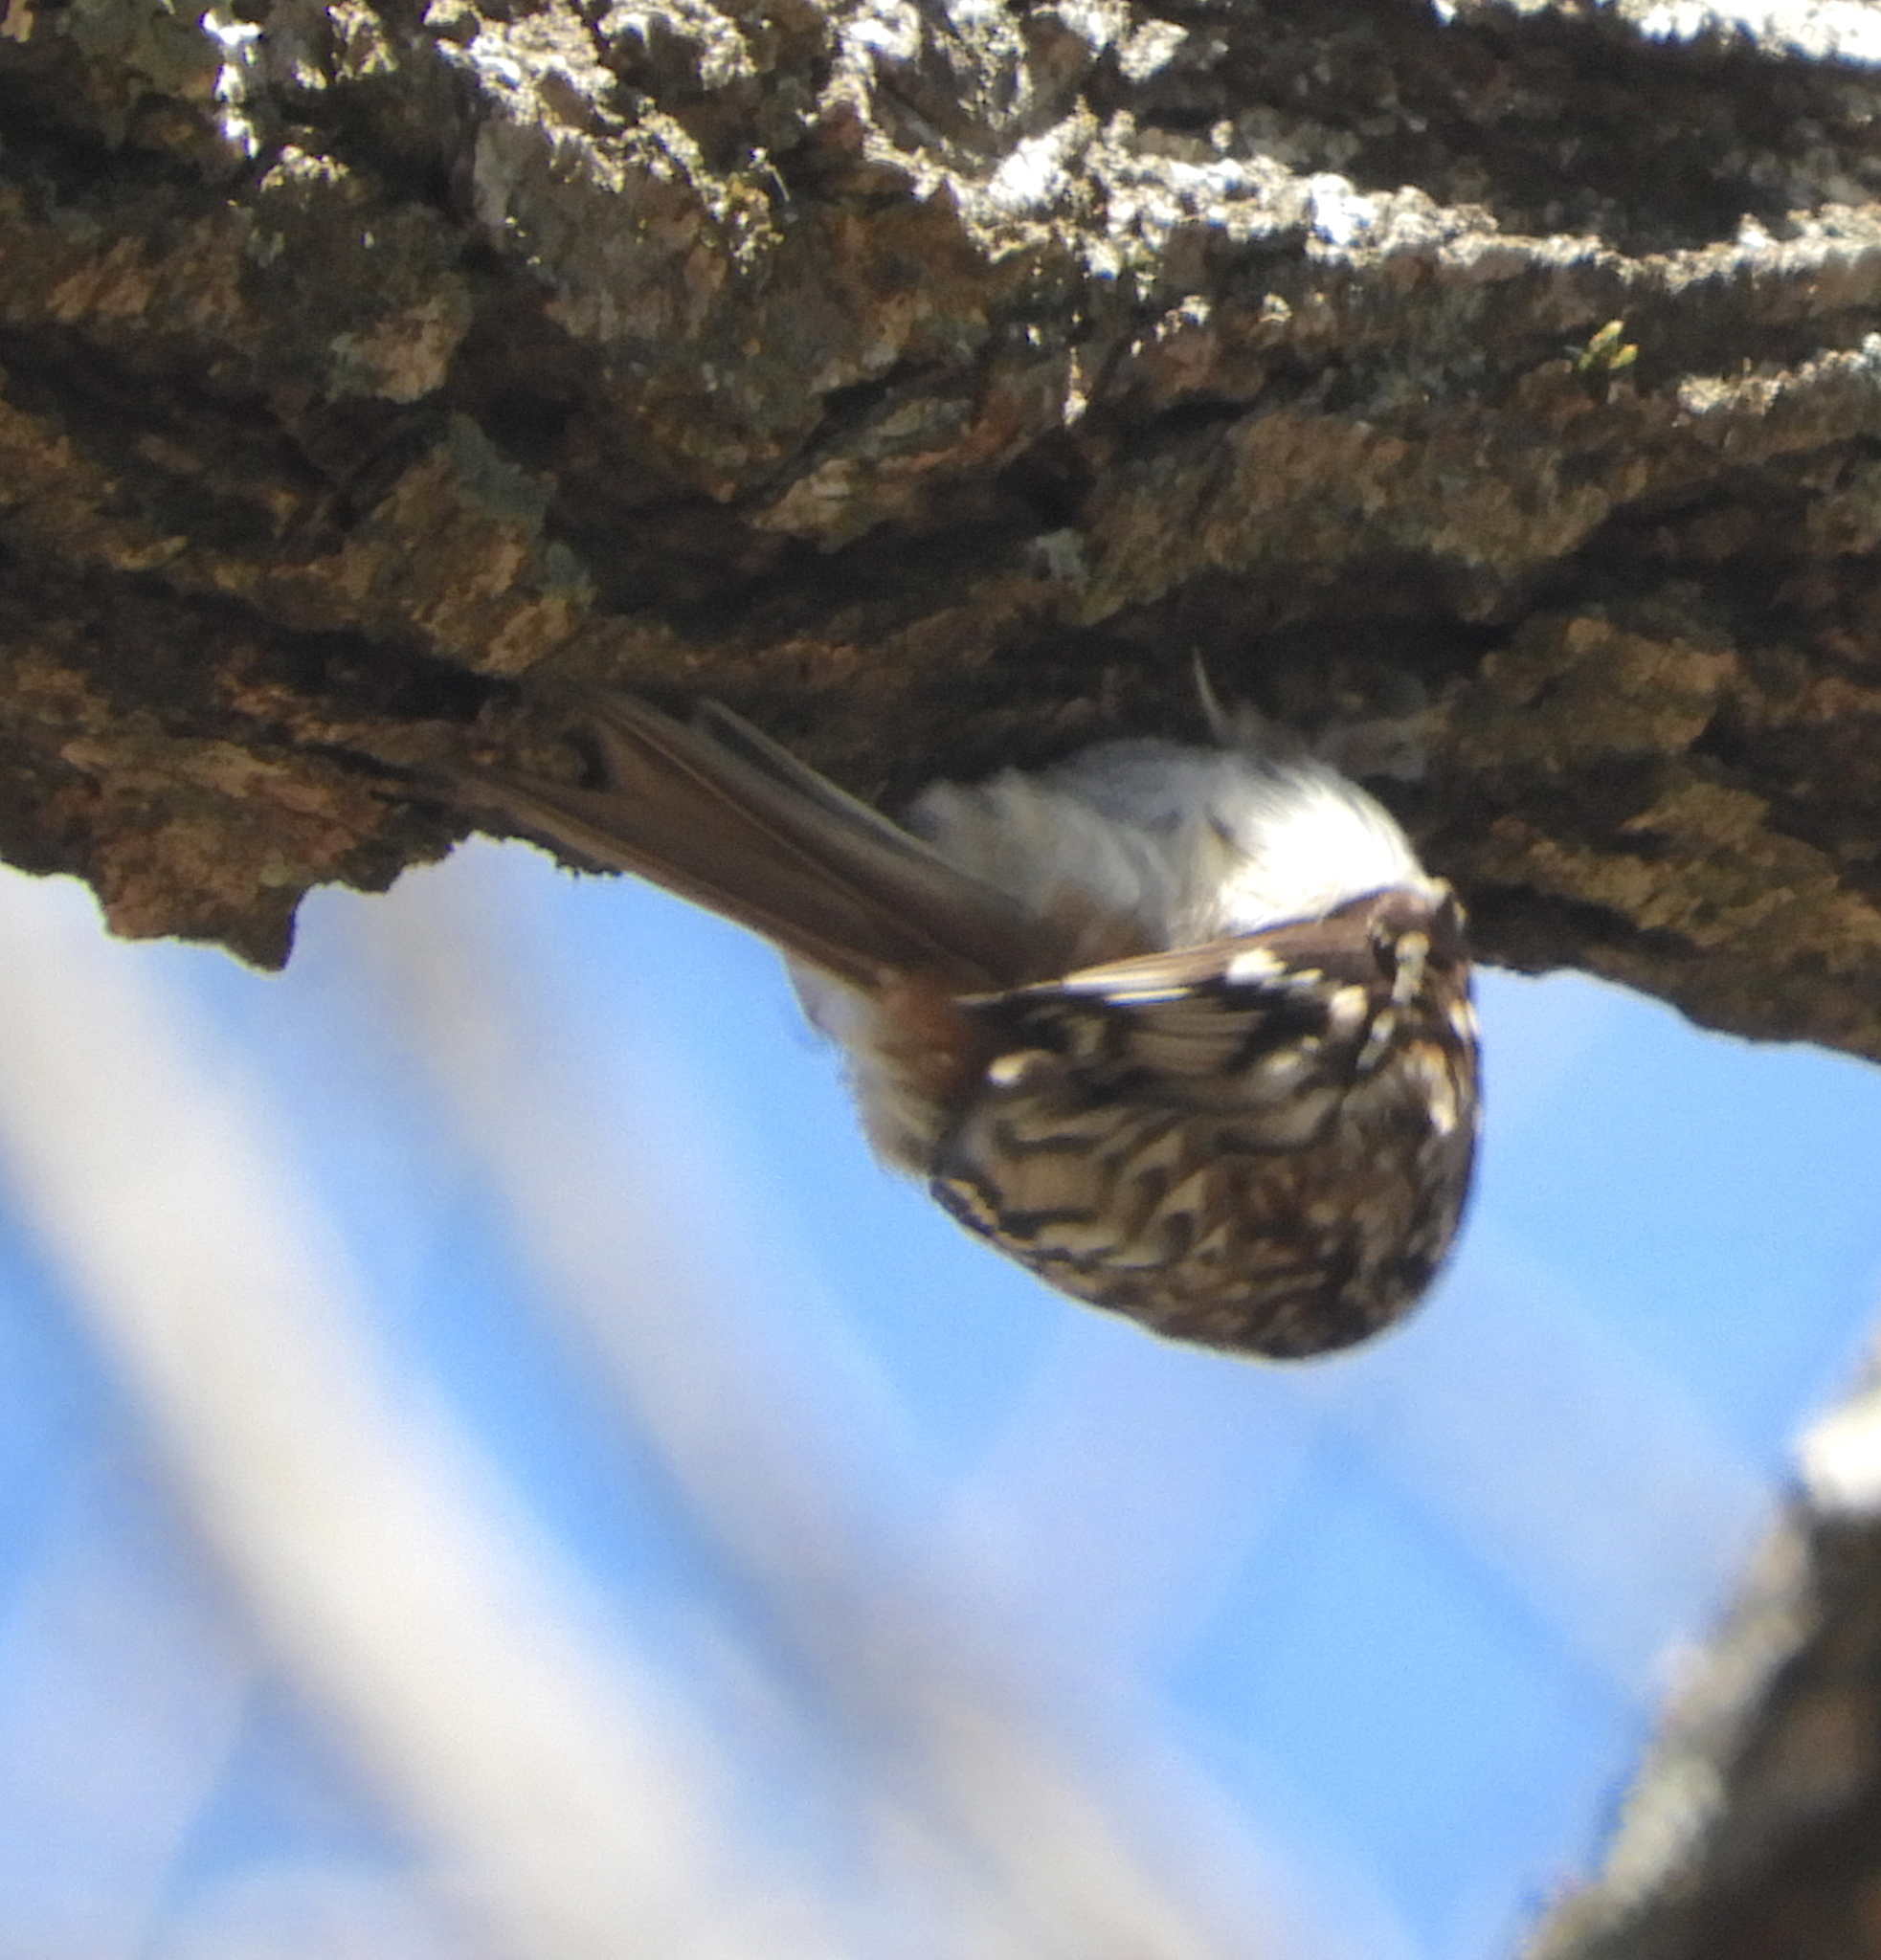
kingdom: Animalia
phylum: Chordata
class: Aves
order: Passeriformes
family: Certhiidae
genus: Certhia
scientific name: Certhia americana
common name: Brown creeper
